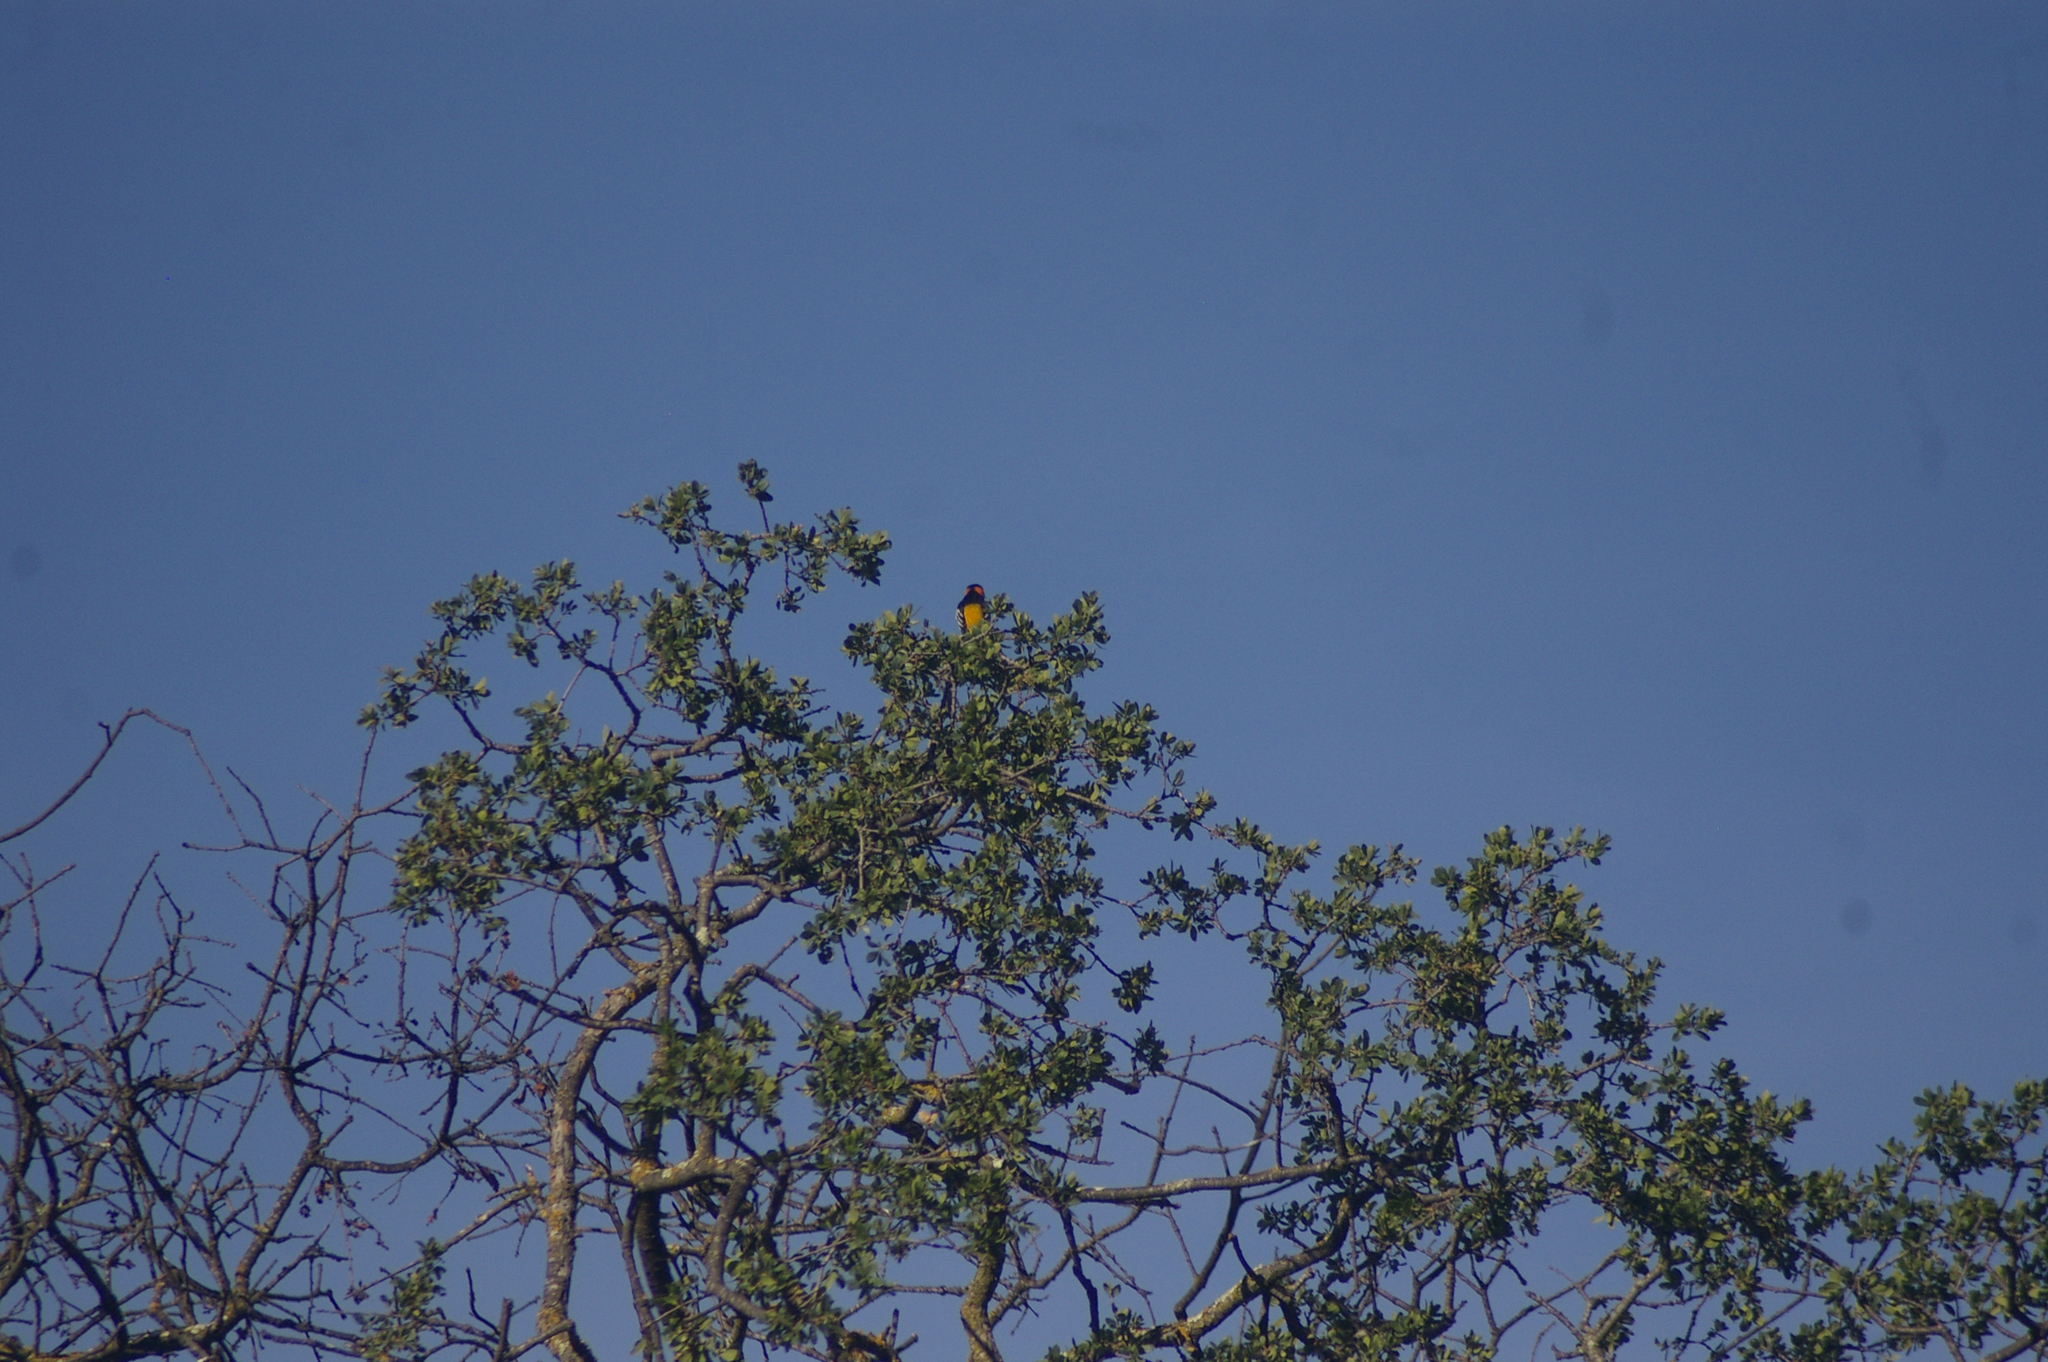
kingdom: Animalia
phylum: Chordata
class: Aves
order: Passeriformes
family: Icteridae
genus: Icterus
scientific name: Icterus bullockii
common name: Bullock's oriole
